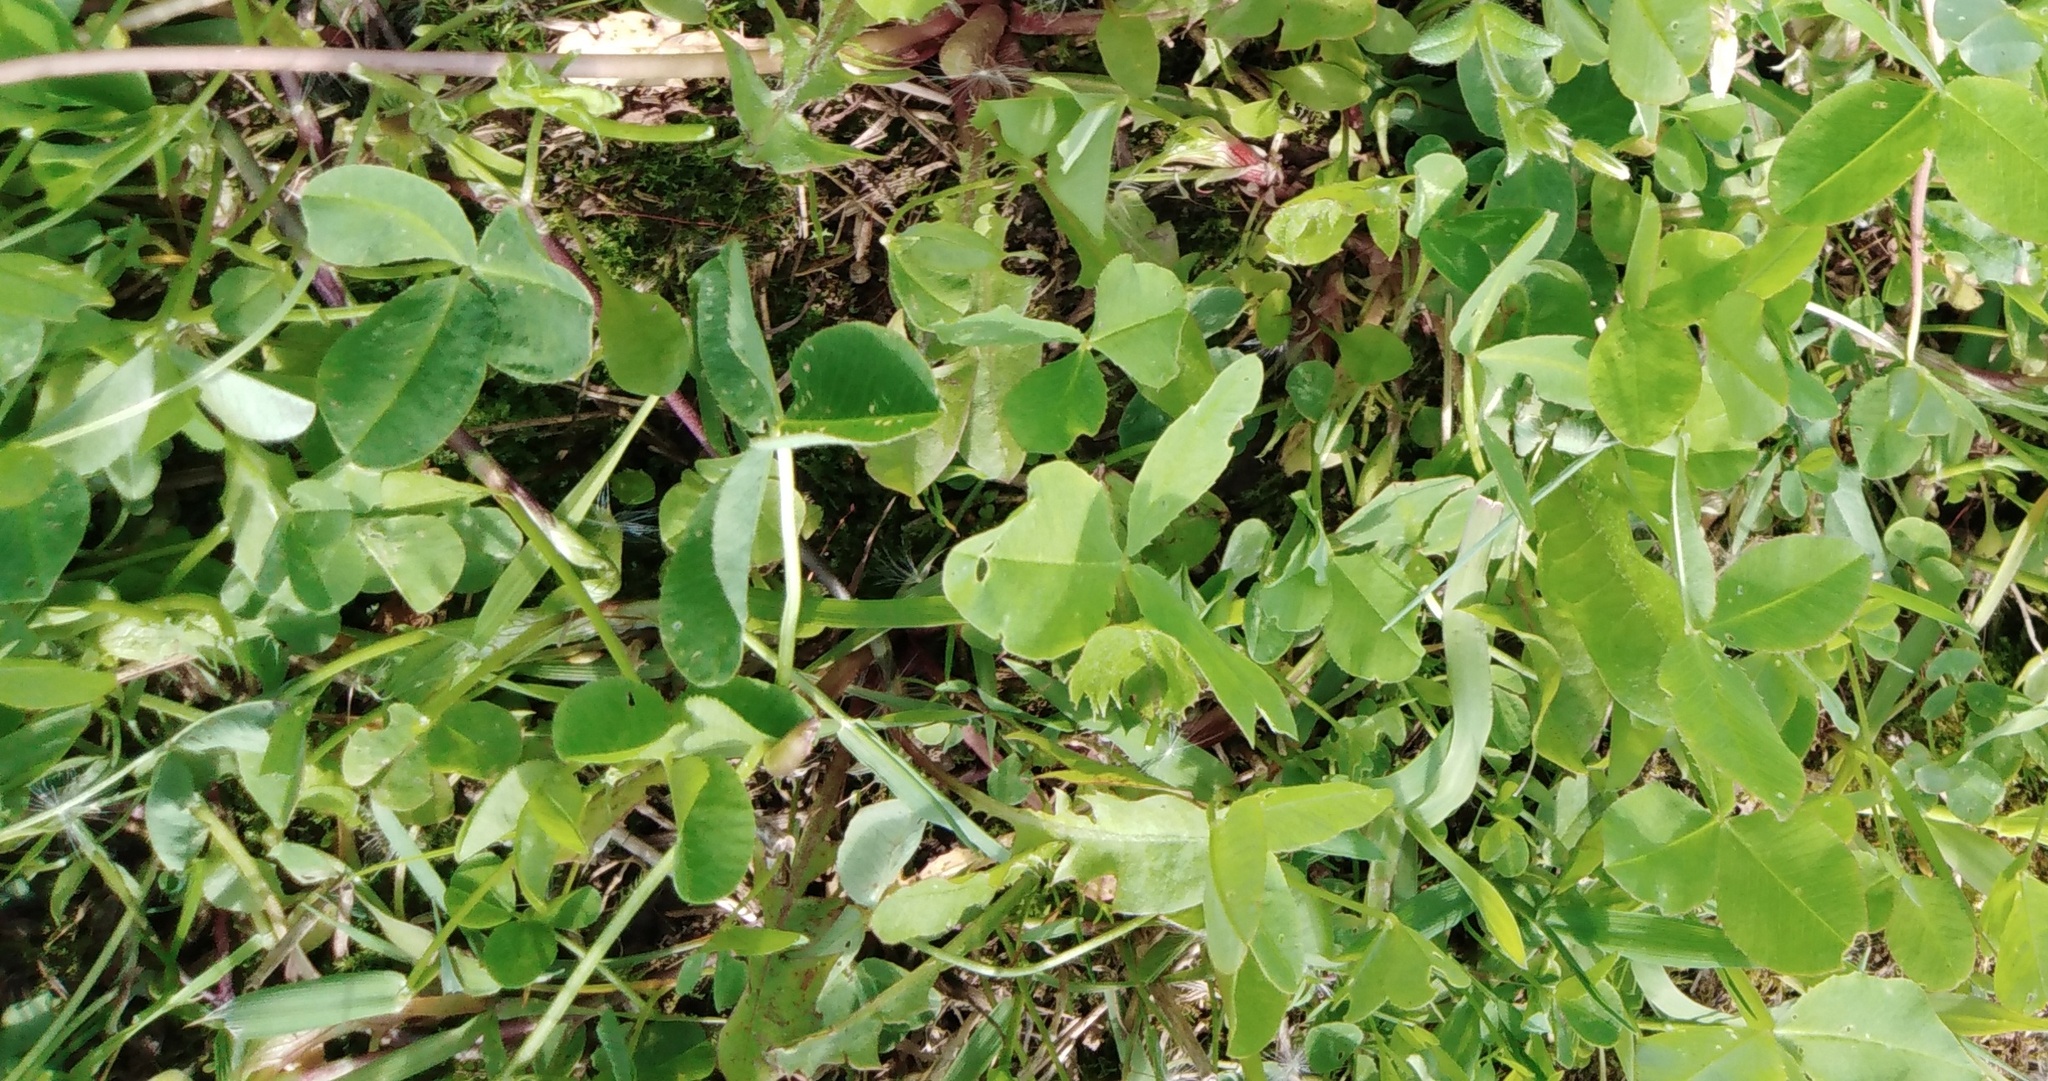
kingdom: Plantae
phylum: Tracheophyta
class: Magnoliopsida
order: Fabales
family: Fabaceae
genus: Trifolium
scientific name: Trifolium repens
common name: White clover
